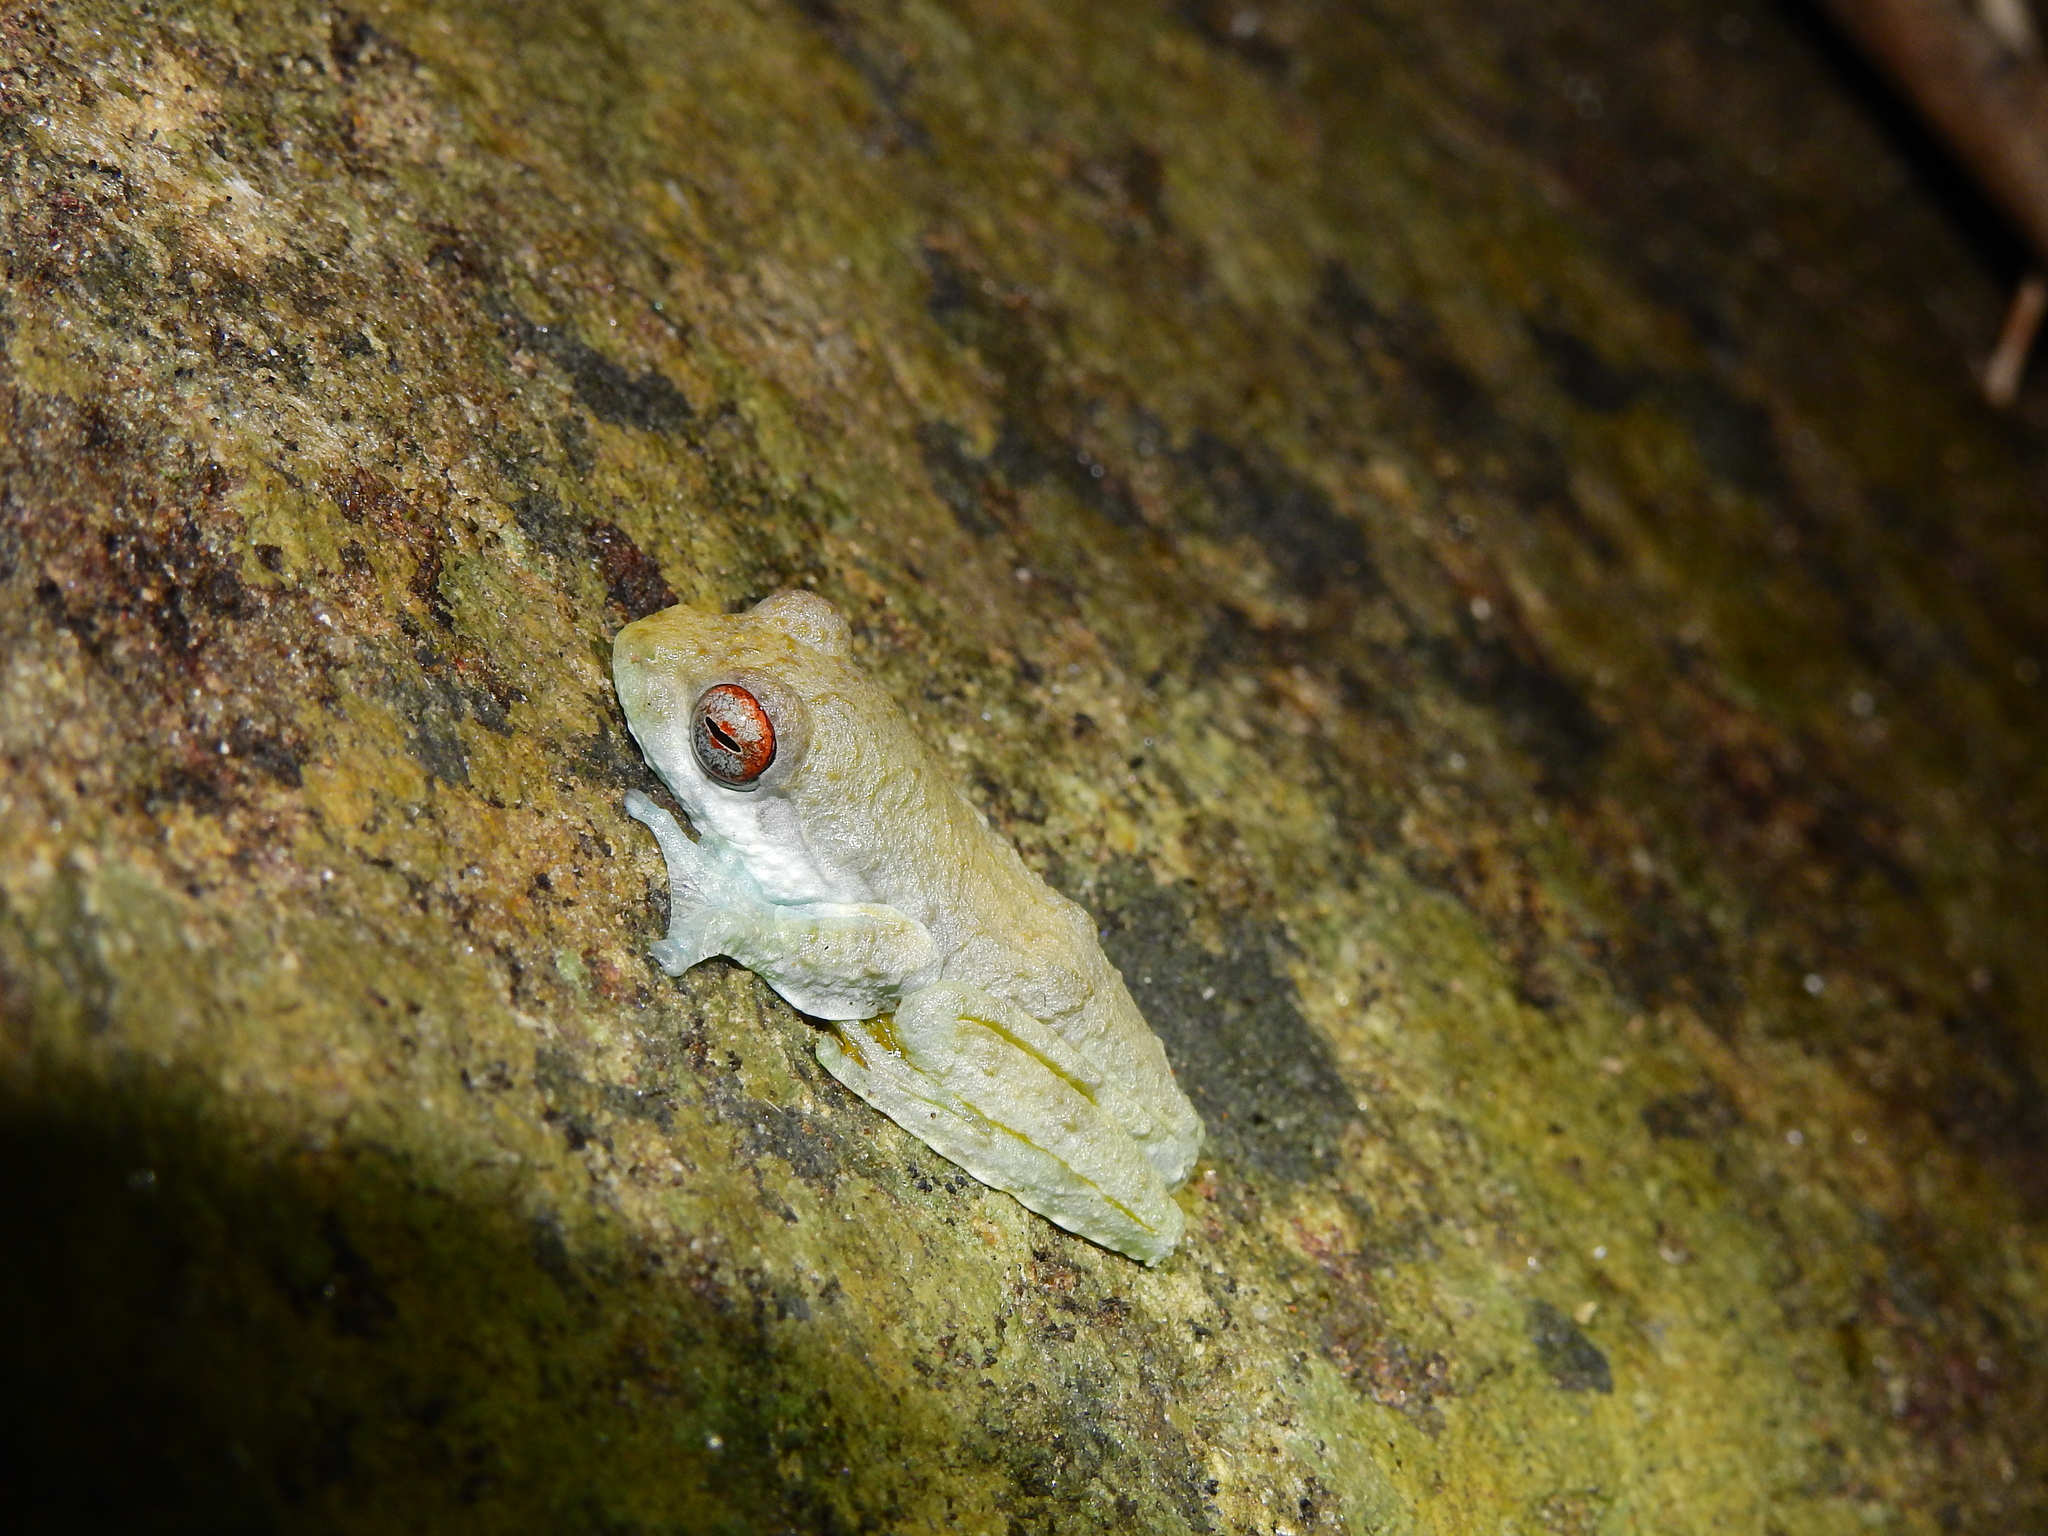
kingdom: Animalia
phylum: Chordata
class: Amphibia
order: Anura
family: Rhacophoridae
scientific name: Rhacophoridae
